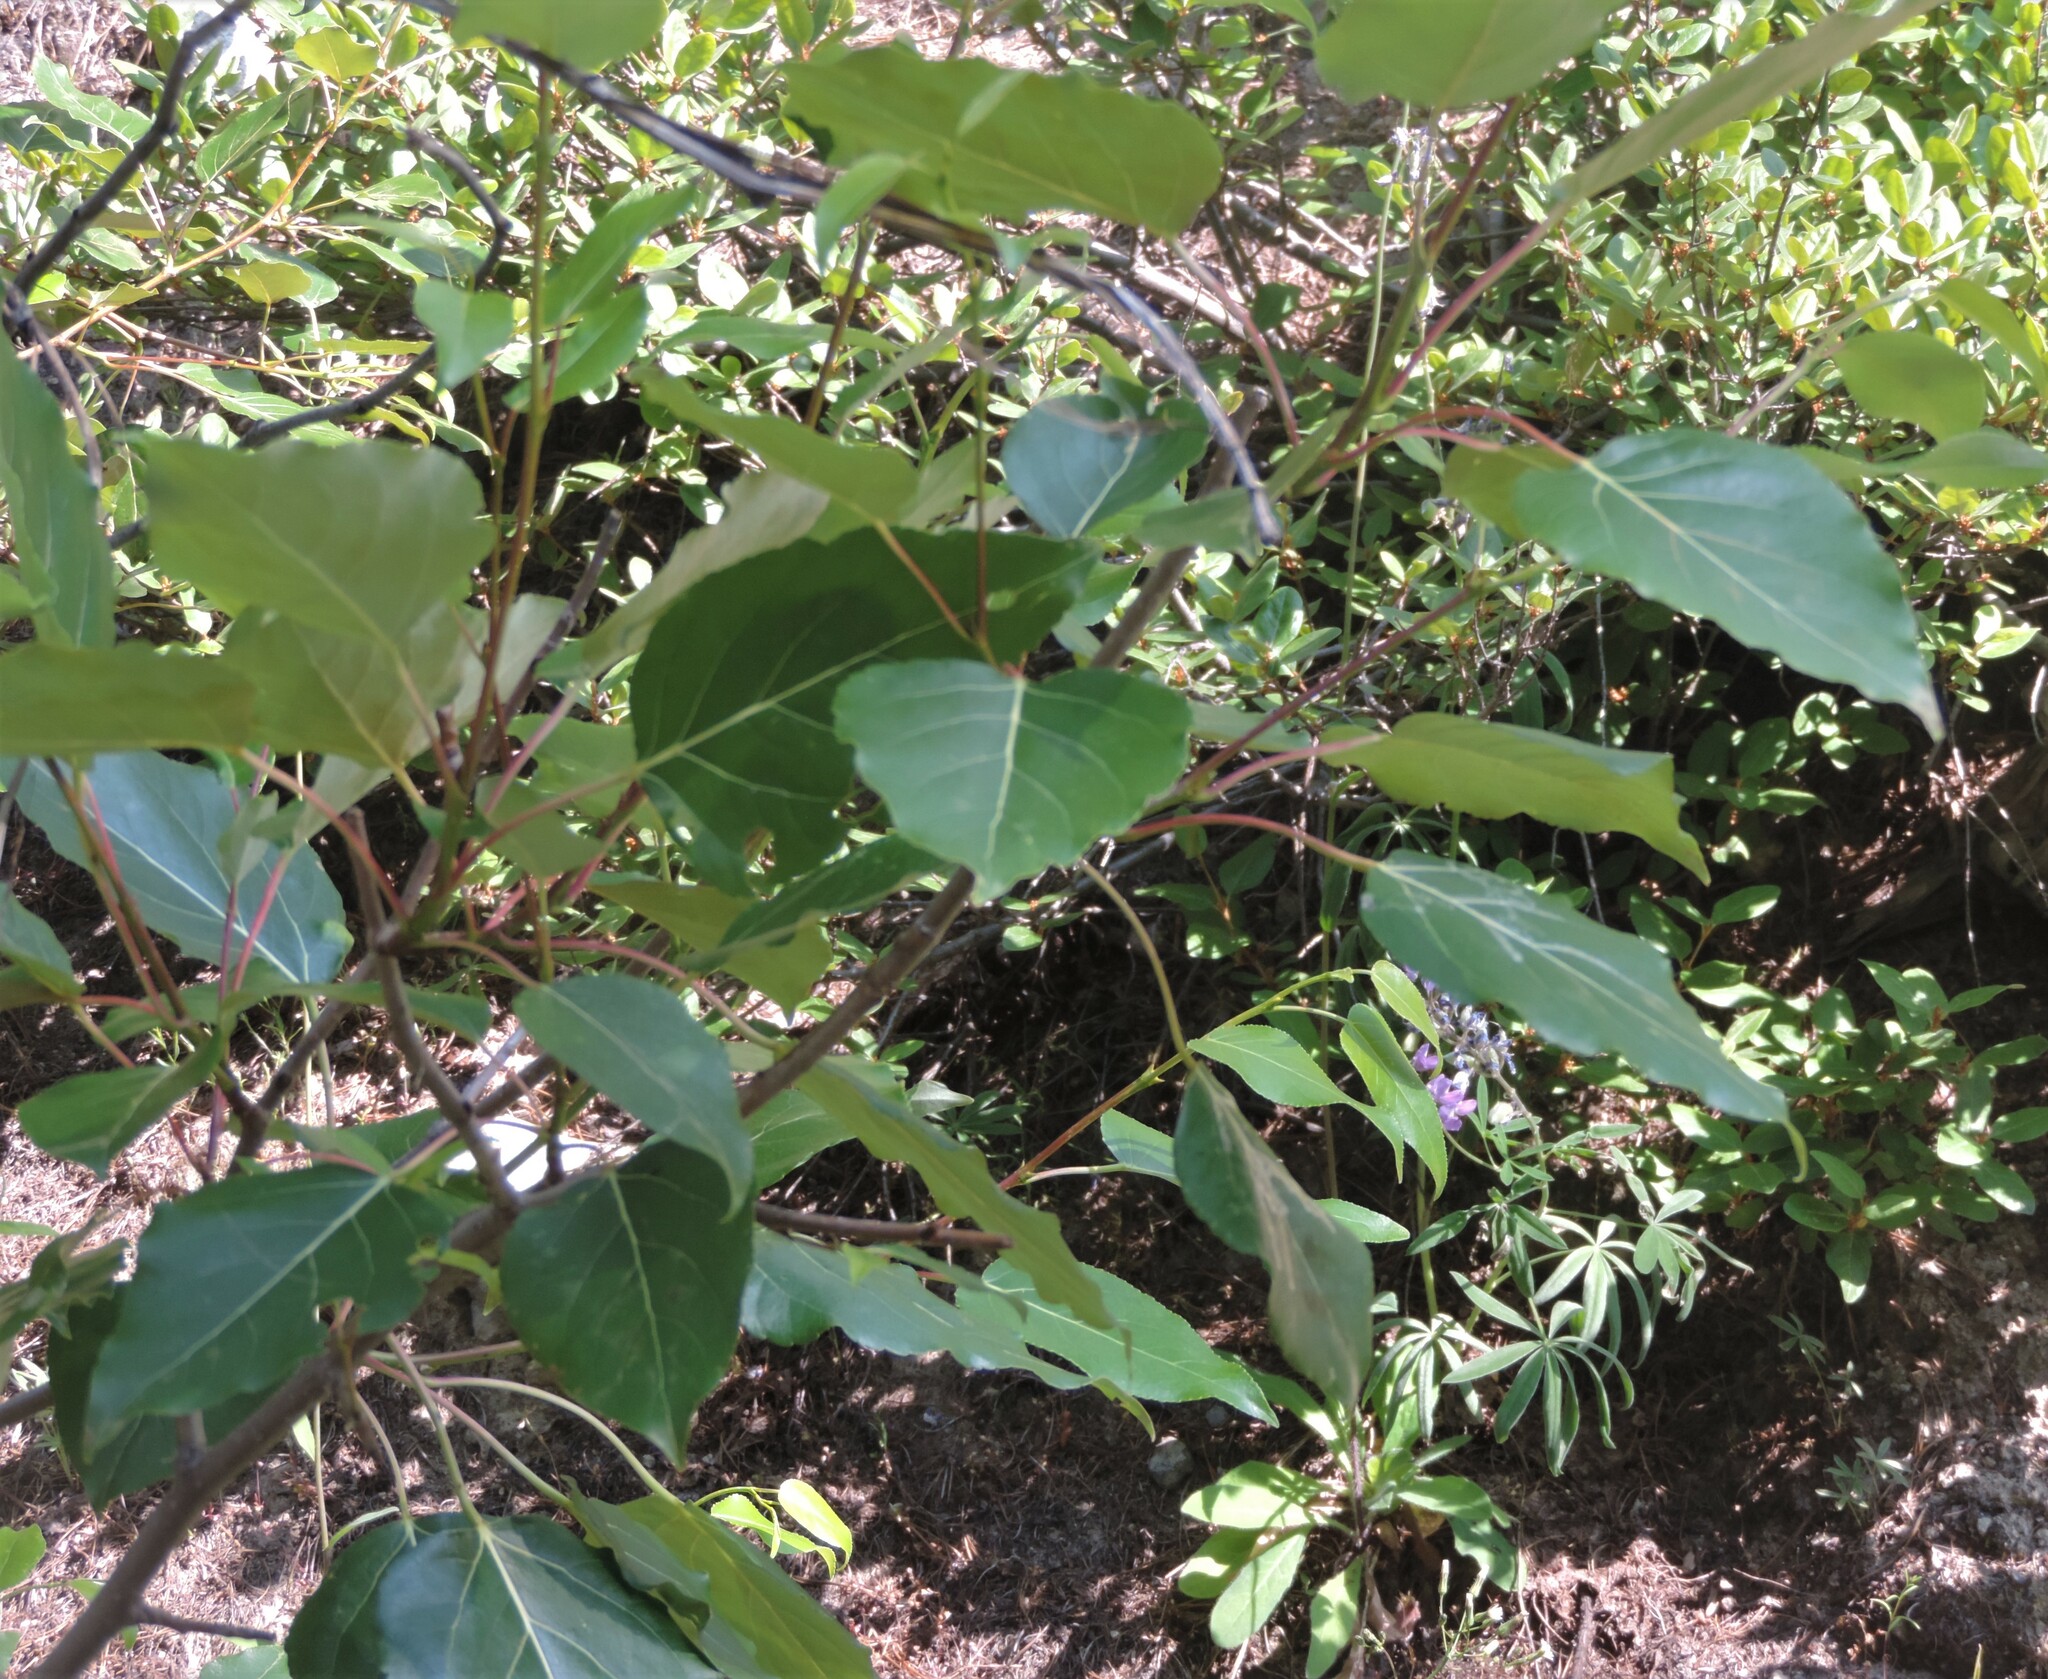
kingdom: Plantae
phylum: Tracheophyta
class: Magnoliopsida
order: Malpighiales
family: Salicaceae
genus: Populus
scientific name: Populus trichocarpa
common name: Black cottonwood
